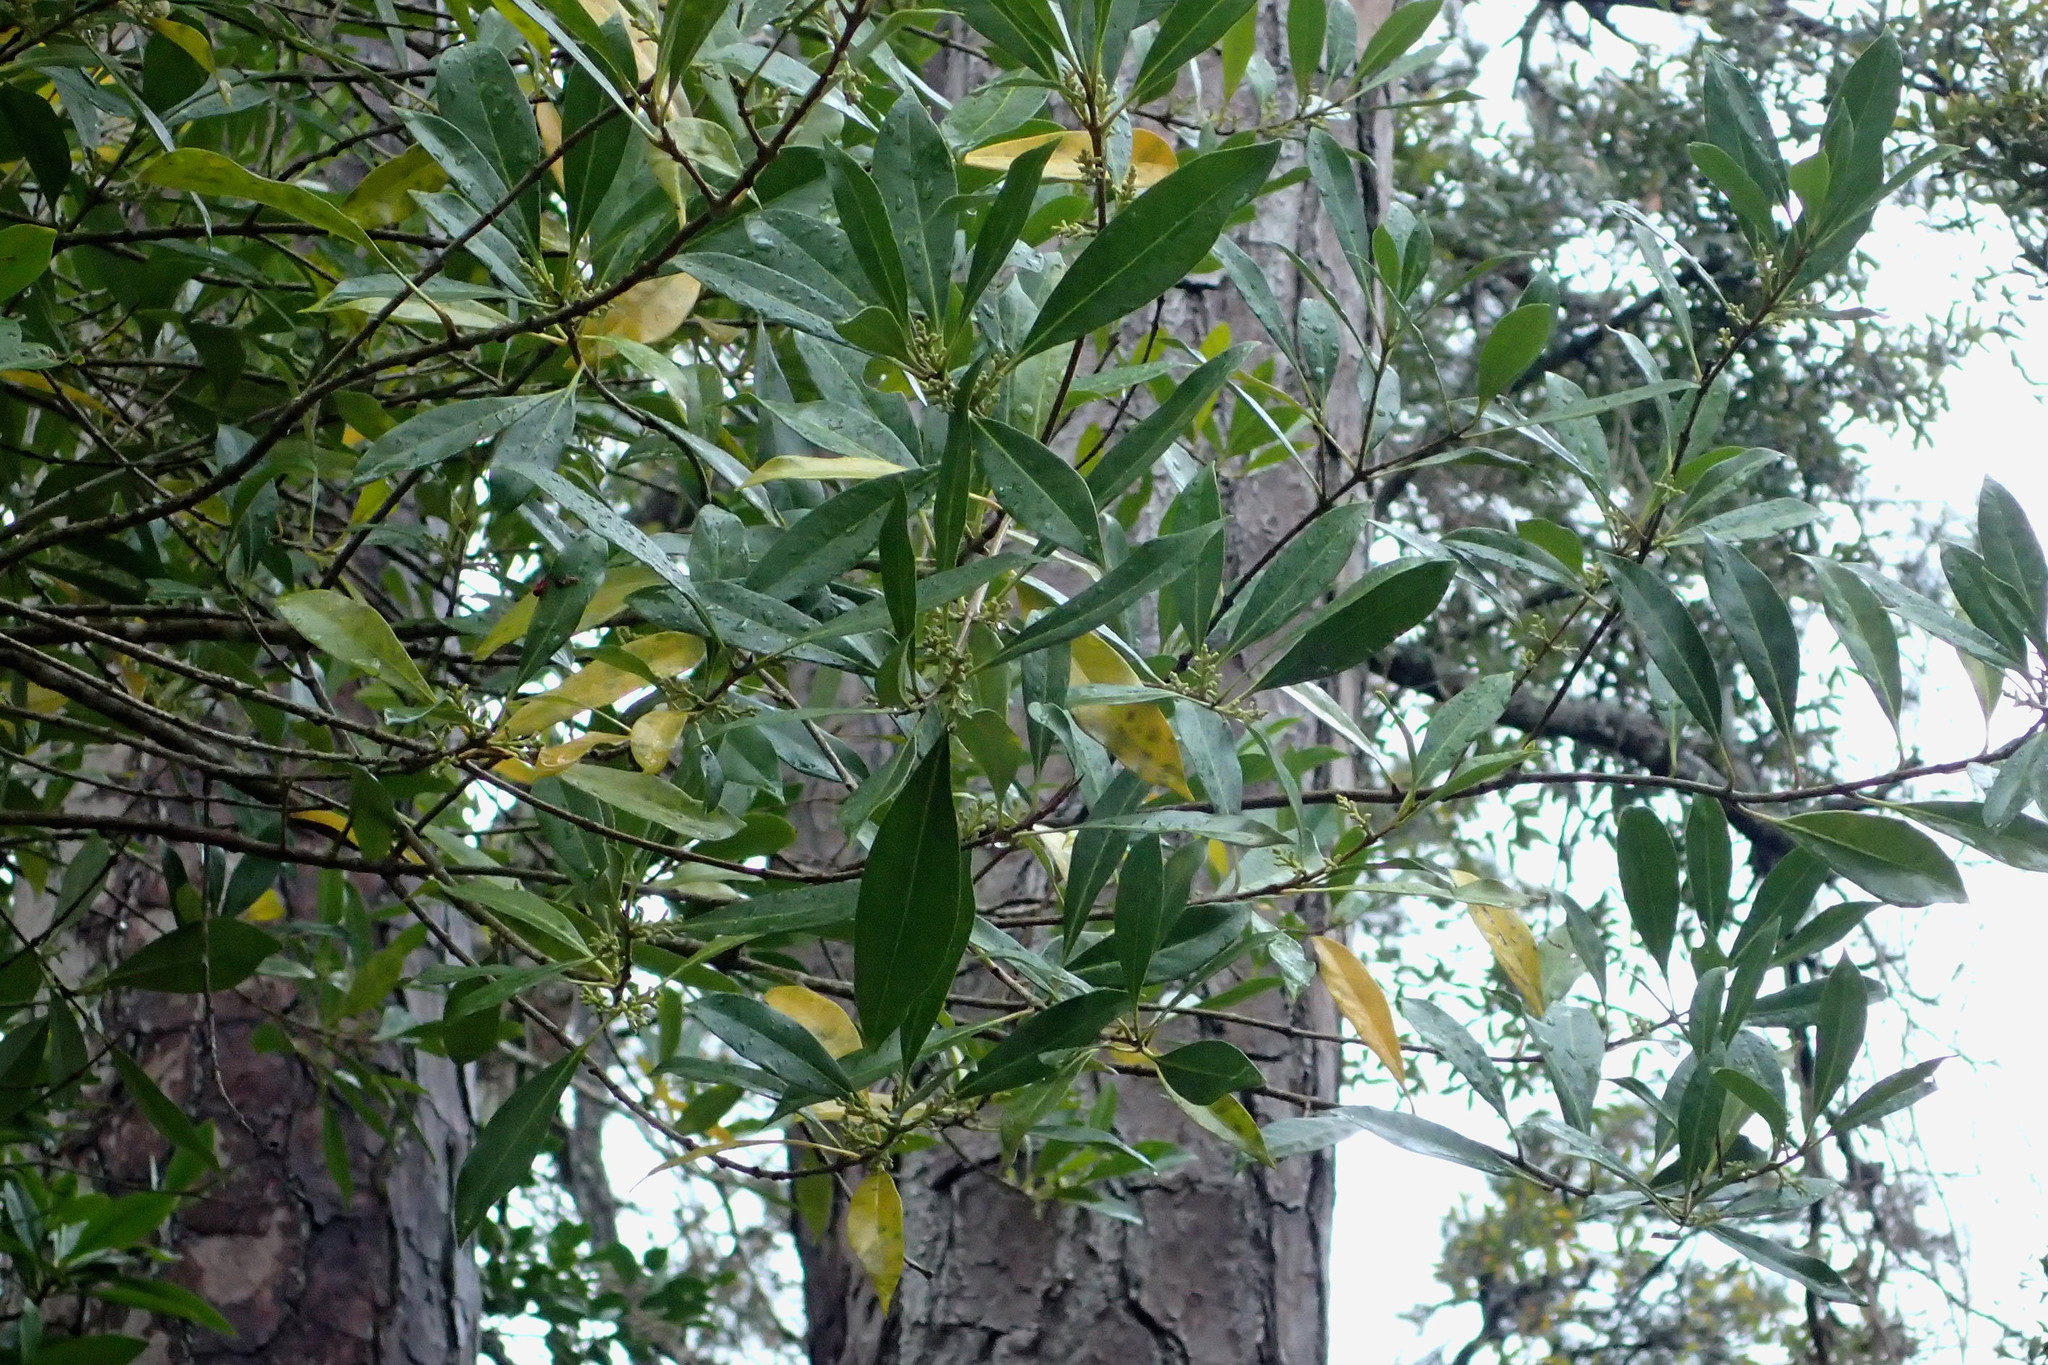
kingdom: Plantae
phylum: Tracheophyta
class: Magnoliopsida
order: Lamiales
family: Oleaceae
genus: Cartrema
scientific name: Cartrema americana
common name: Devilwood
